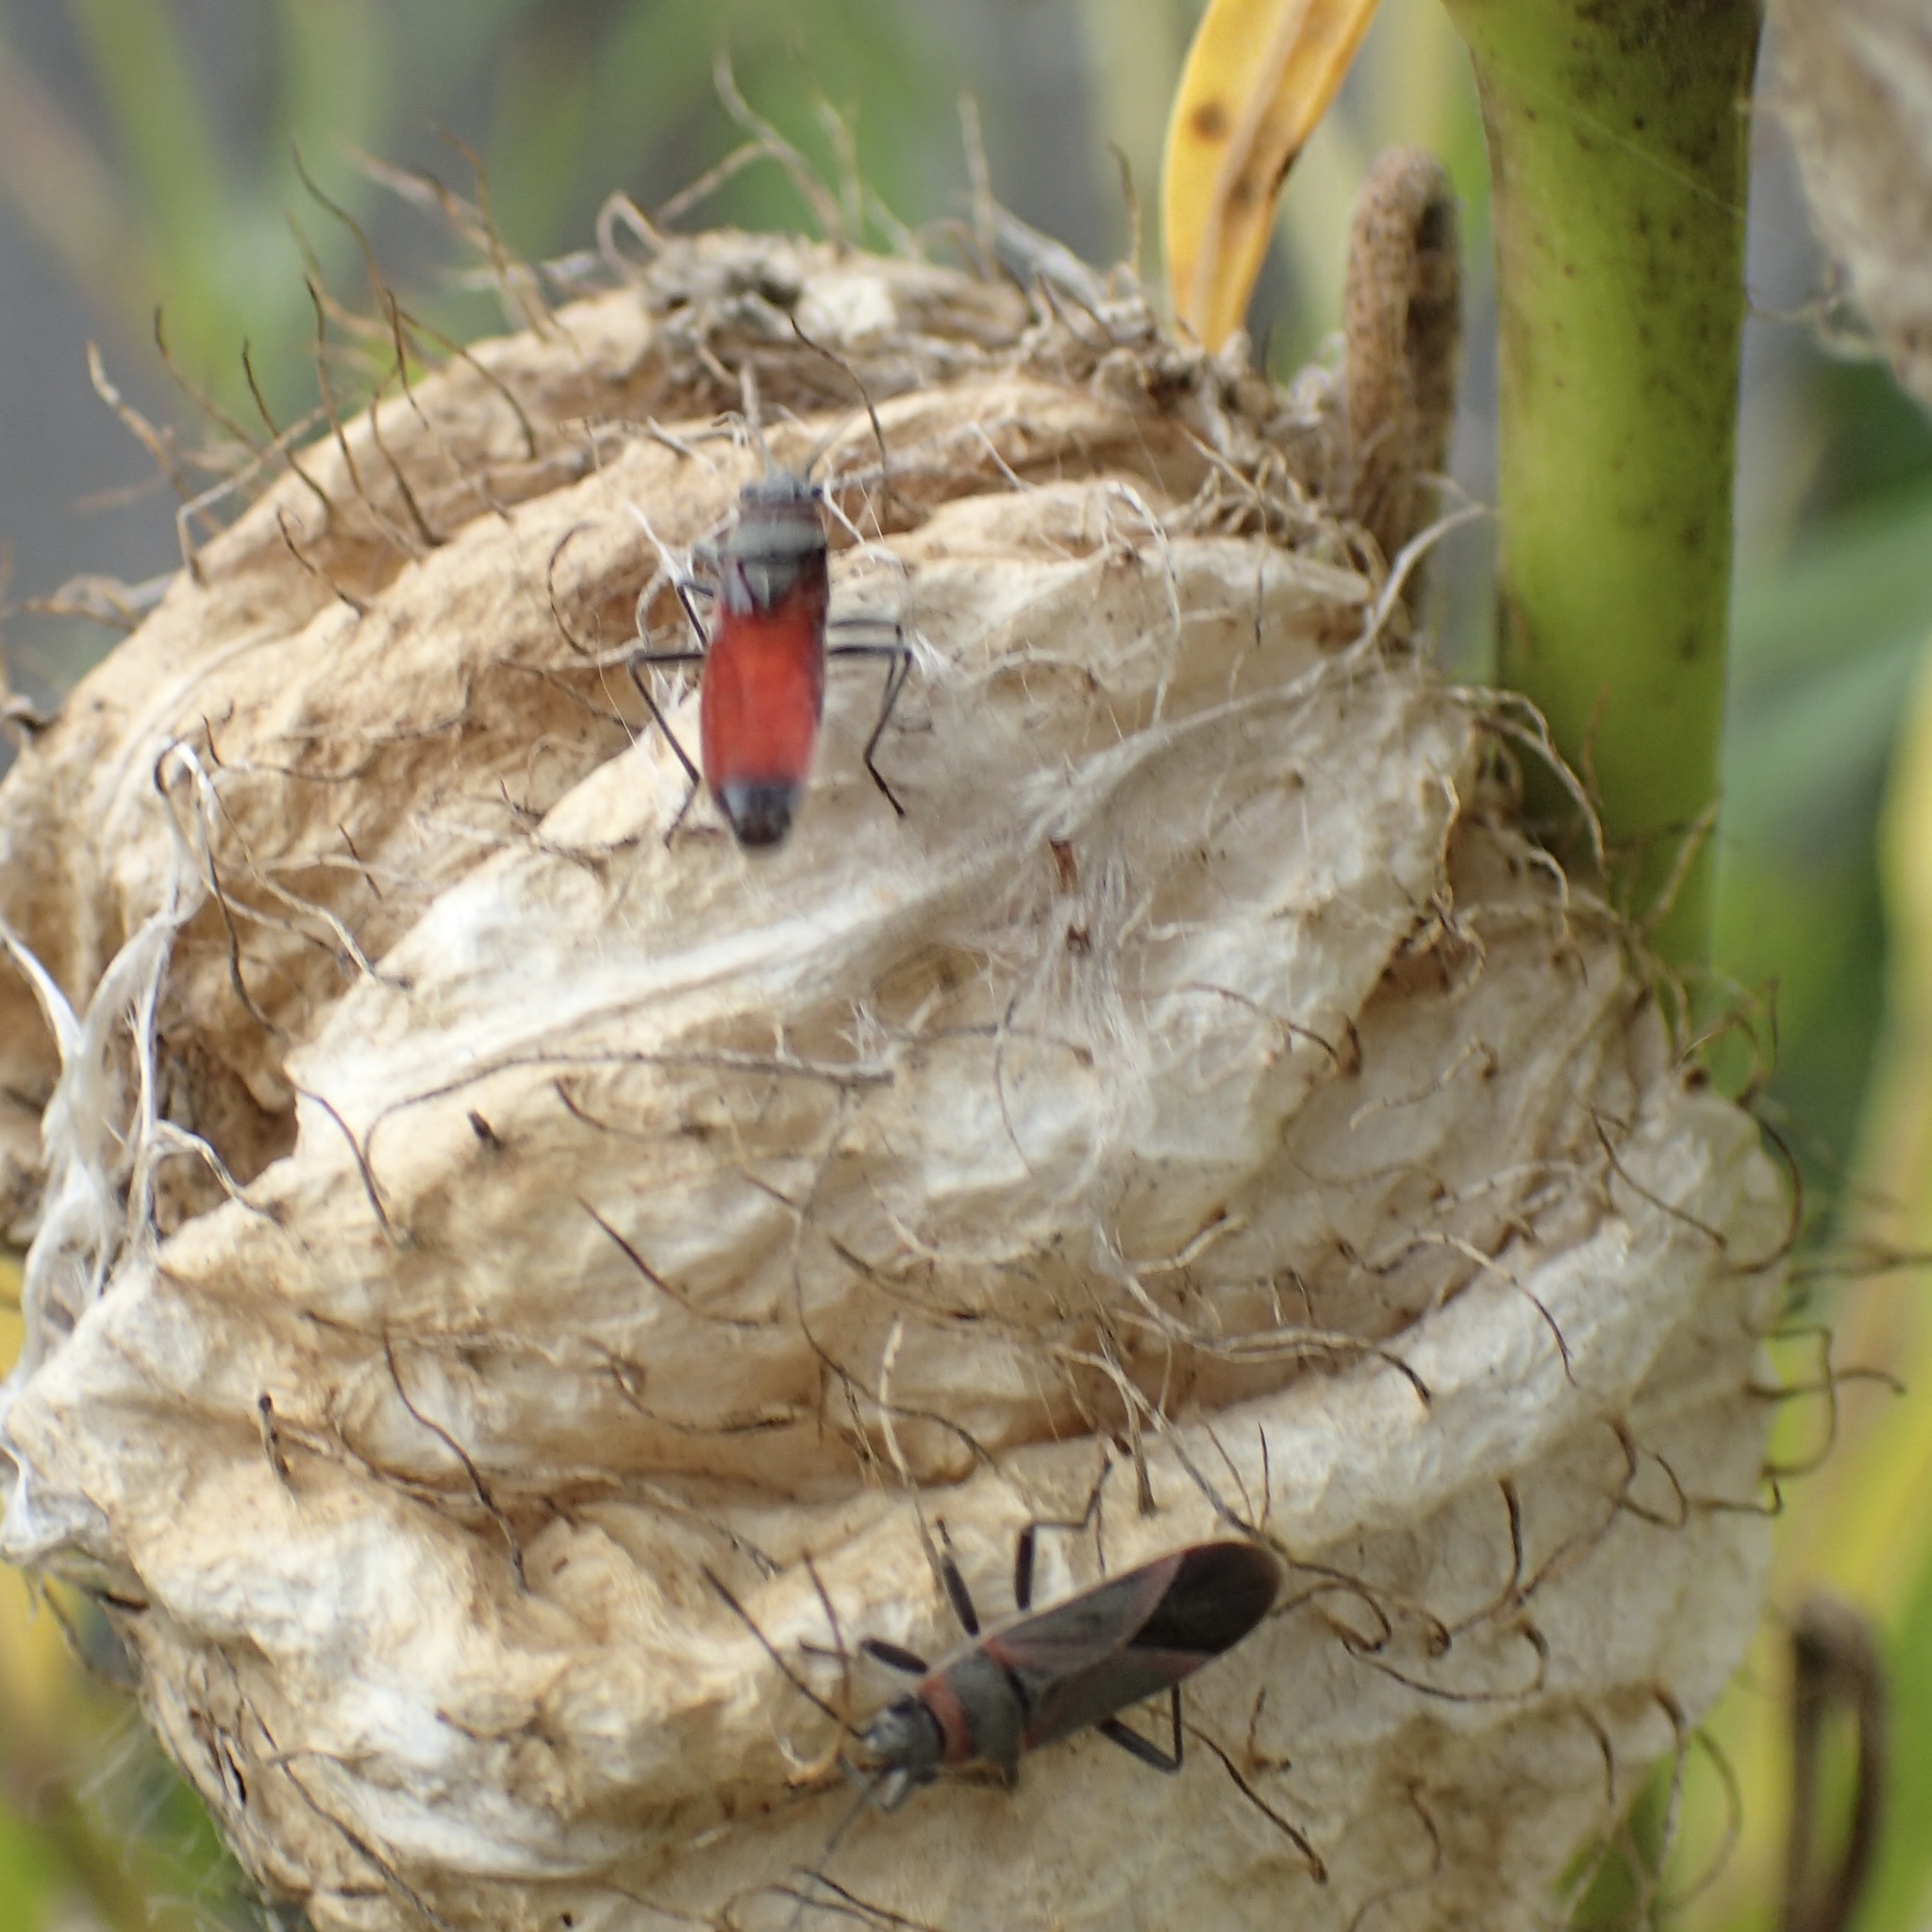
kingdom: Animalia
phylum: Arthropoda
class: Insecta
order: Hemiptera
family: Lygaeidae
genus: Arocatus
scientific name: Arocatus rusticus
